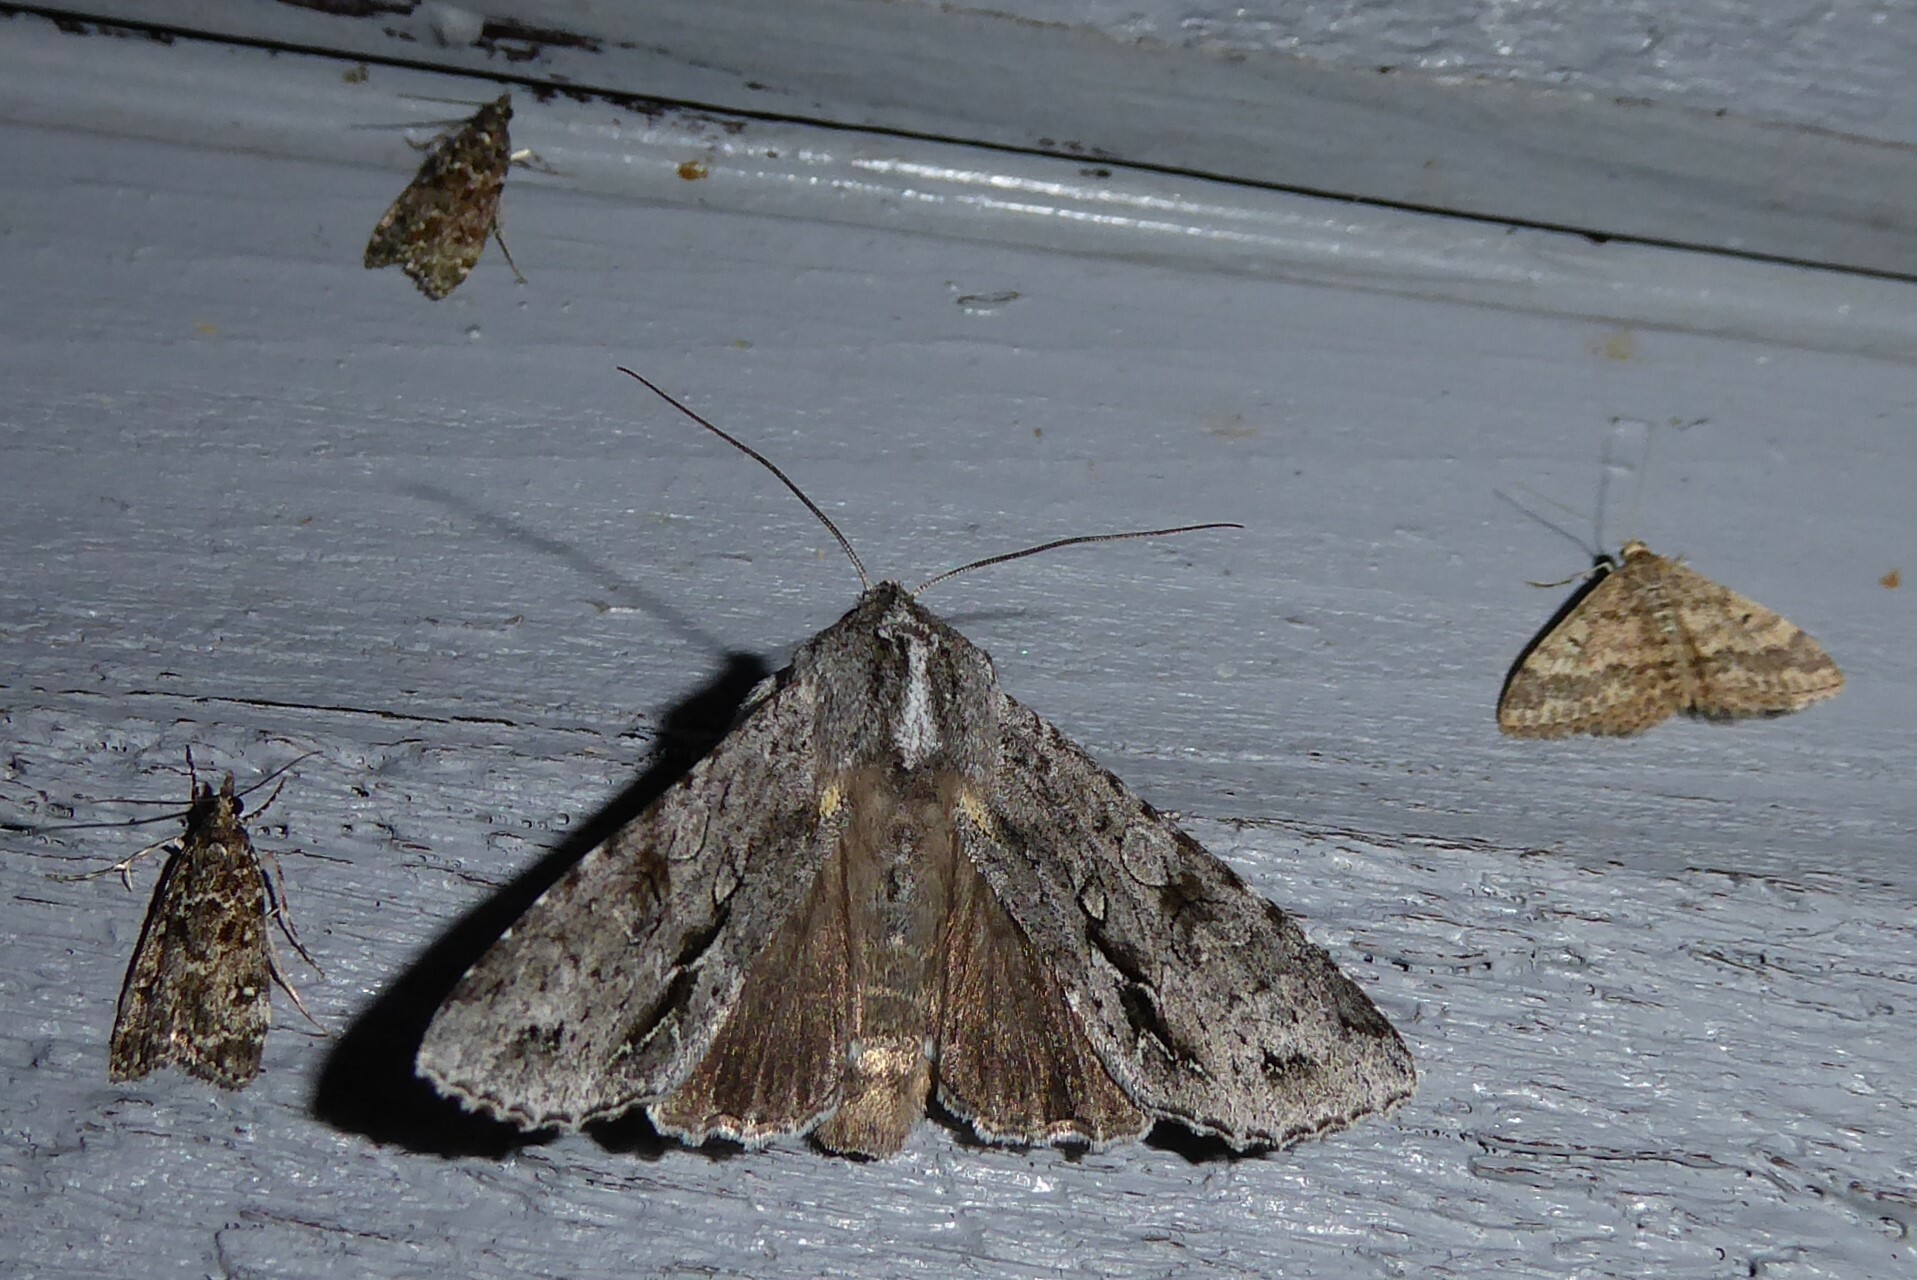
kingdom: Animalia
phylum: Arthropoda
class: Insecta
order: Lepidoptera
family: Noctuidae
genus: Ichneutica
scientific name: Ichneutica
